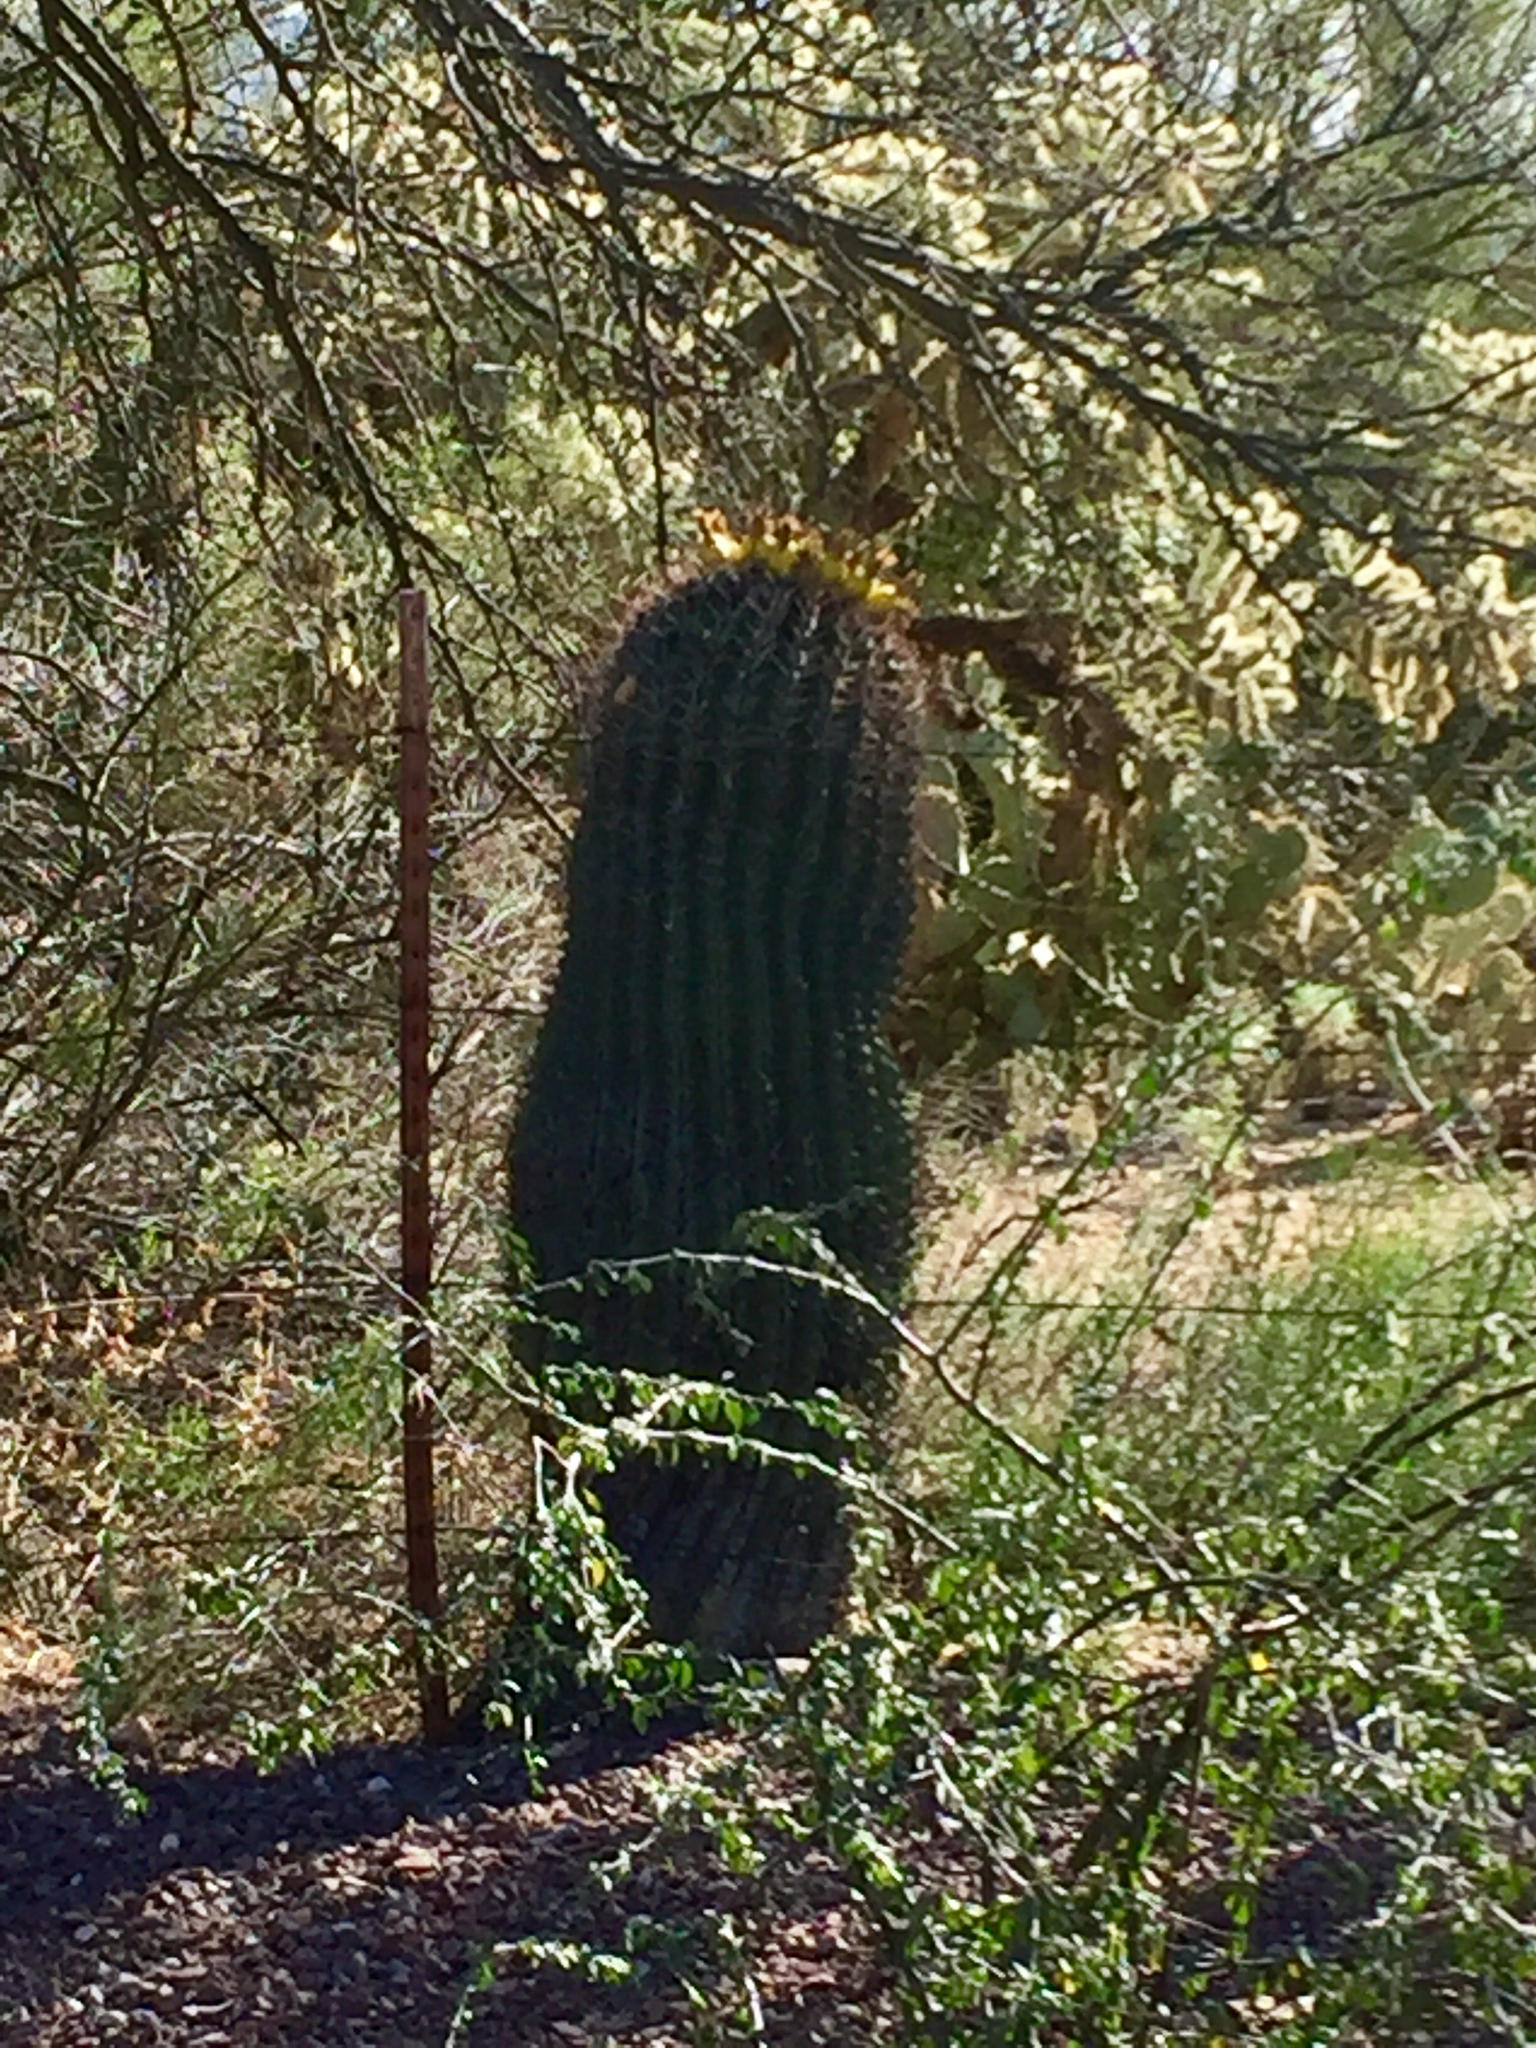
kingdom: Plantae
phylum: Tracheophyta
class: Magnoliopsida
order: Caryophyllales
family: Cactaceae
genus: Ferocactus
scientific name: Ferocactus wislizeni
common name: Candy barrel cactus
